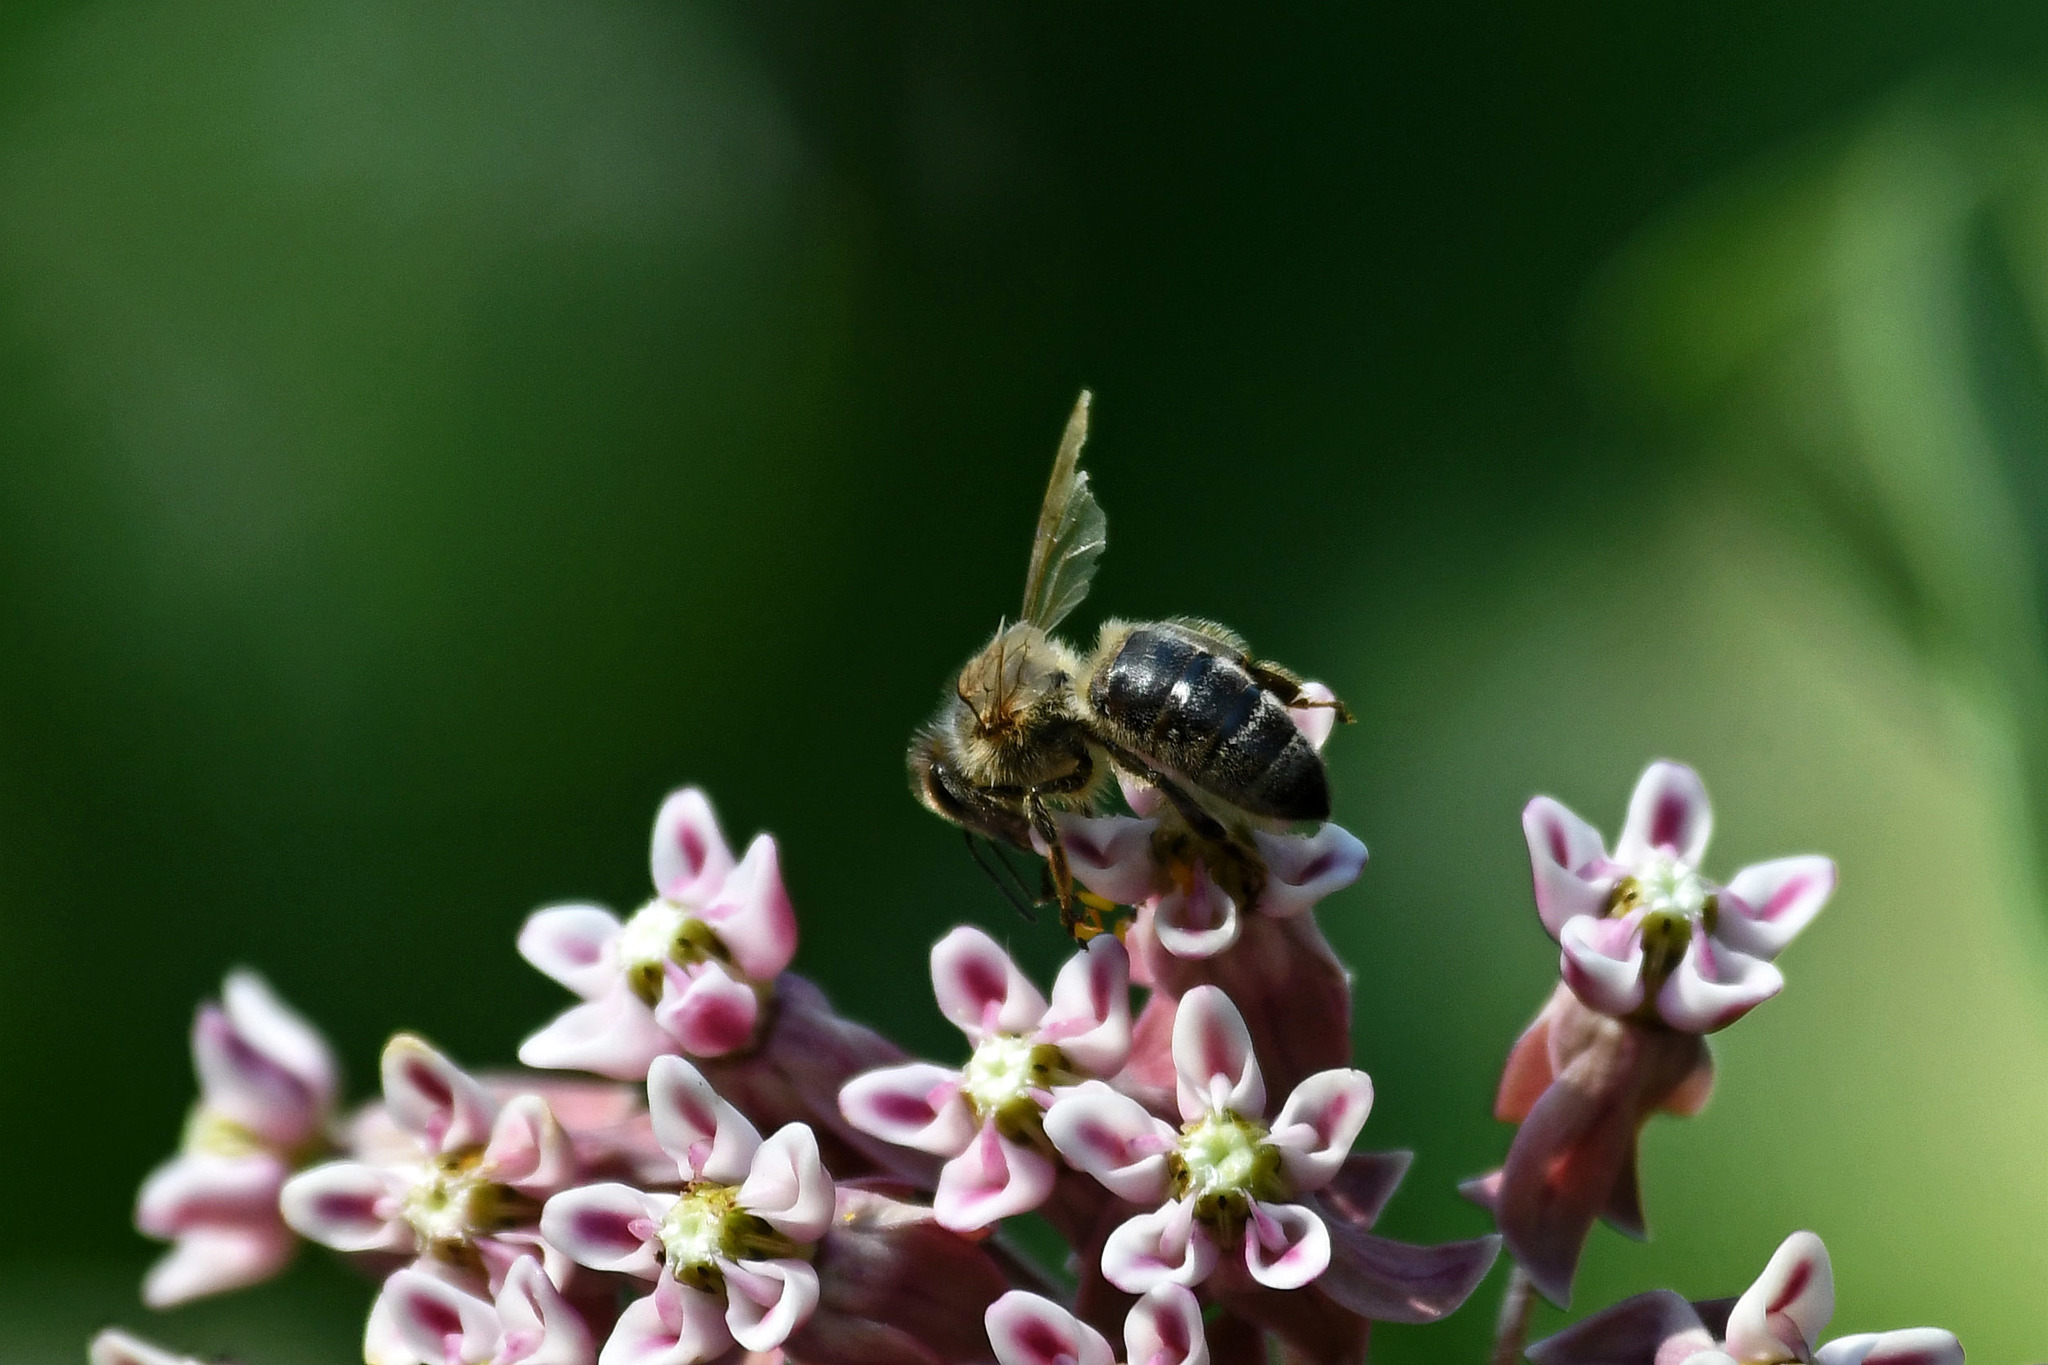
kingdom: Animalia
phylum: Arthropoda
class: Insecta
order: Hymenoptera
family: Apidae
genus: Apis
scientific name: Apis mellifera
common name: Honey bee
